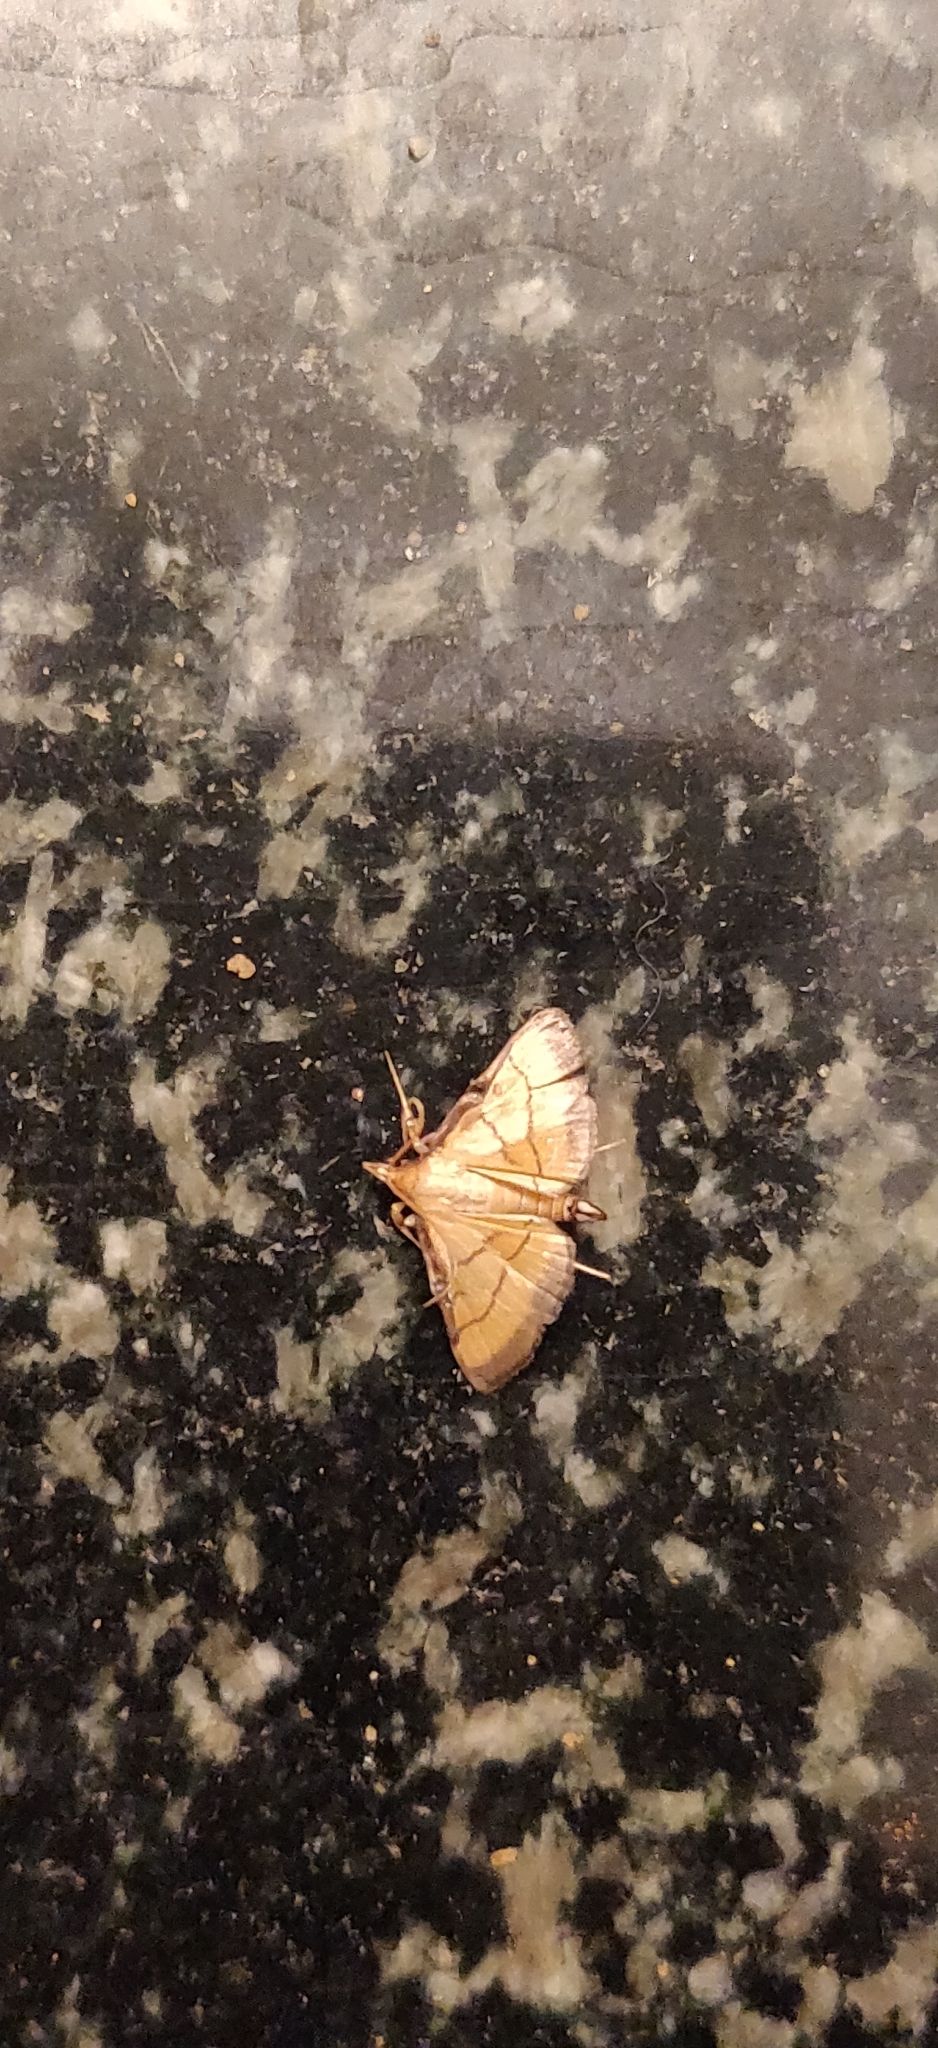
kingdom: Animalia
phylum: Arthropoda
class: Insecta
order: Lepidoptera
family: Crambidae
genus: Cnaphalocrocis
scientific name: Cnaphalocrocis medinalis
